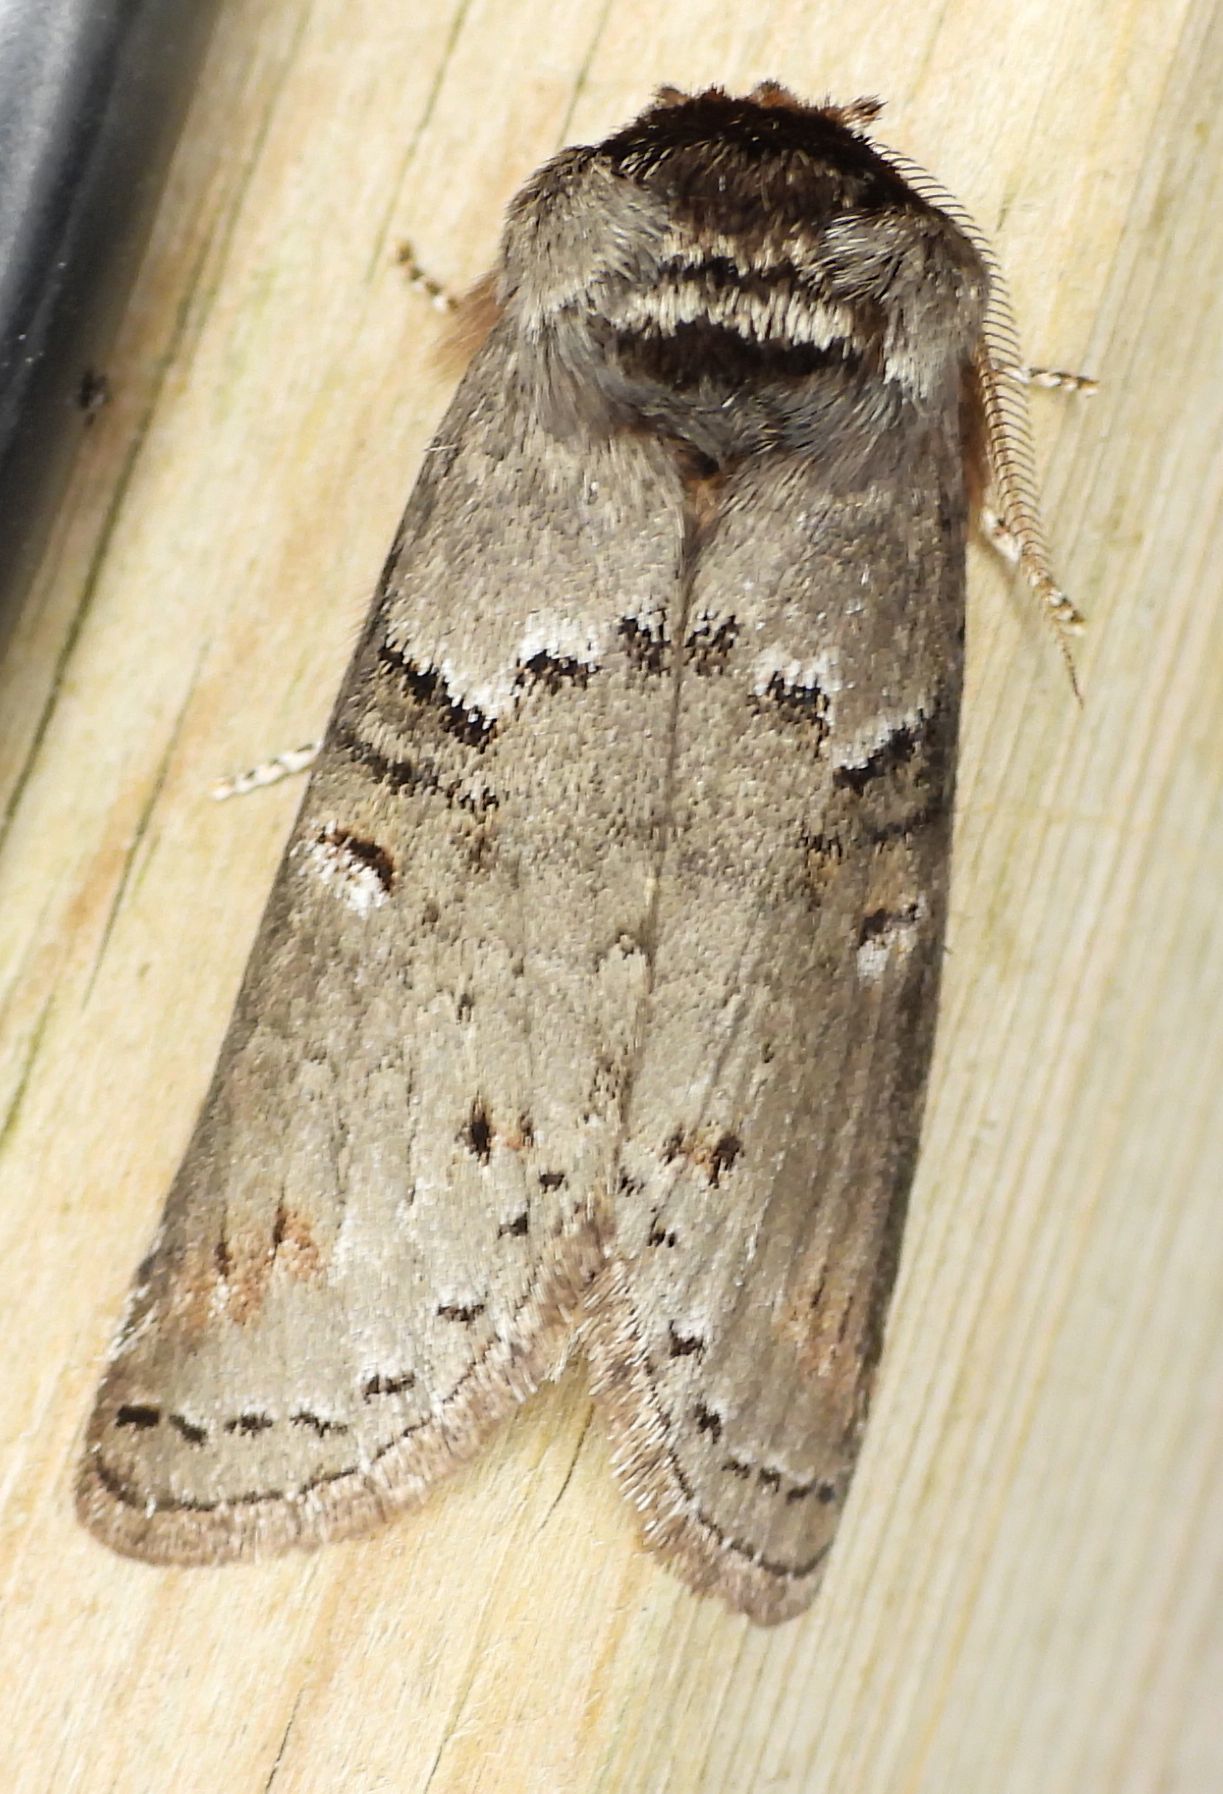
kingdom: Animalia
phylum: Arthropoda
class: Insecta
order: Lepidoptera
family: Notodontidae
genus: Ellida
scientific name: Ellida caniplaga
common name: Linden prominent
